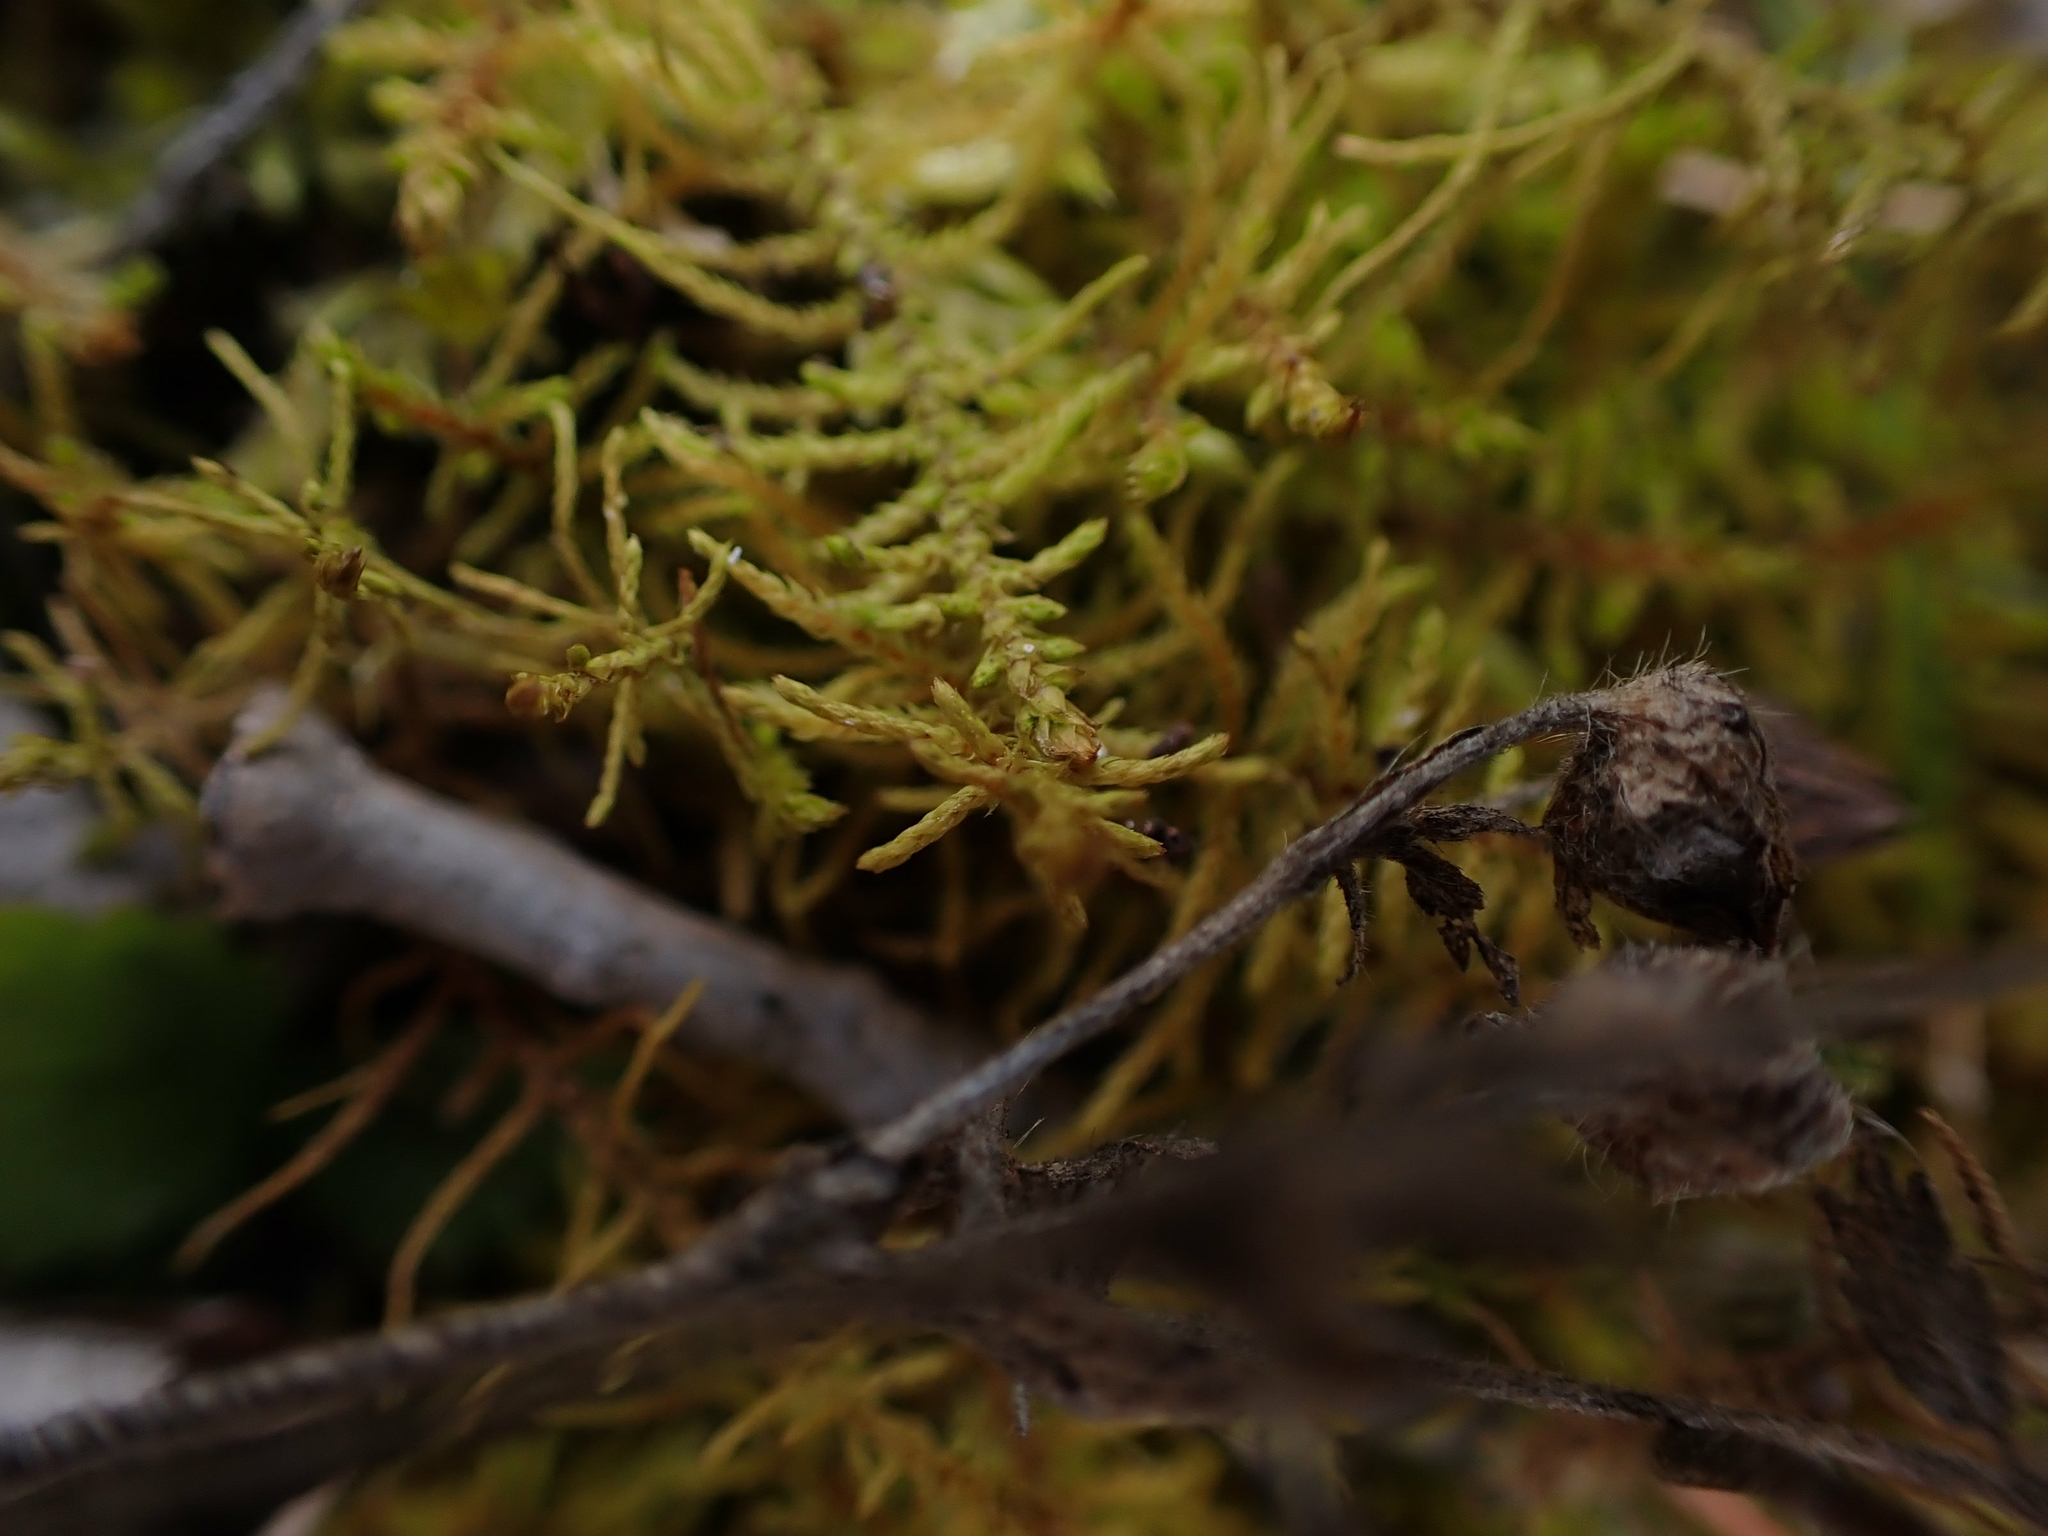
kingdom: Plantae
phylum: Bryophyta
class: Bryopsida
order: Hypnales
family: Thuidiaceae
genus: Abietinella
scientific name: Abietinella abietina
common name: Wiry fern moss
